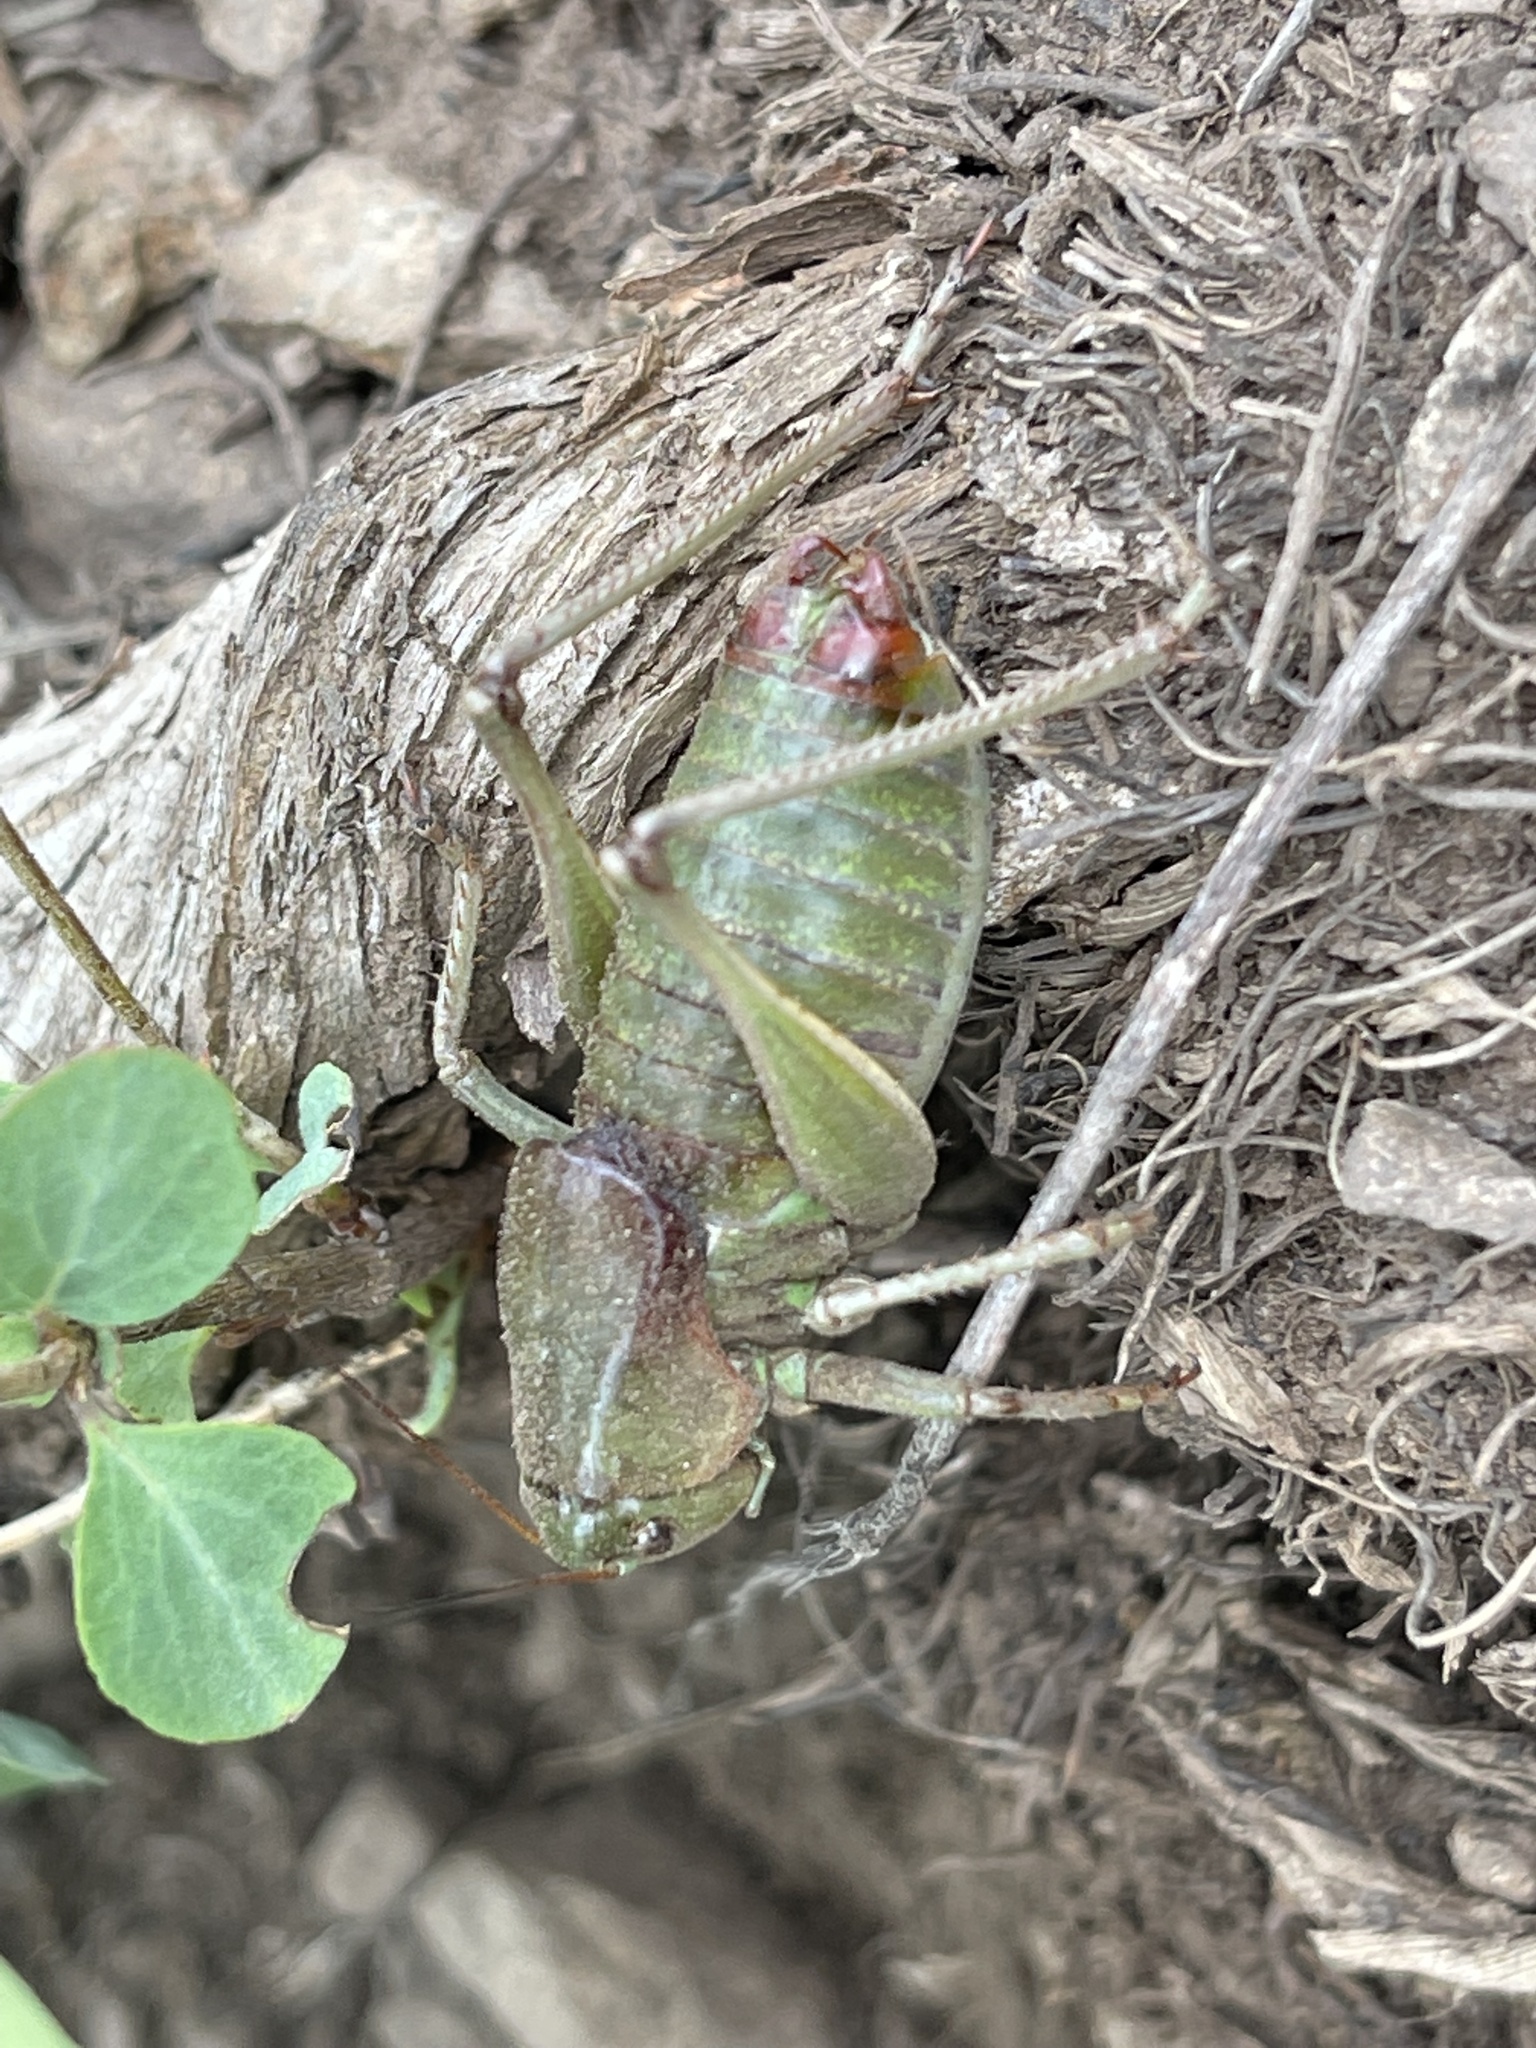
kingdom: Animalia
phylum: Arthropoda
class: Insecta
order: Orthoptera
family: Tettigoniidae
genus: Anabrus
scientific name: Anabrus simplex
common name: Mormon cricket
